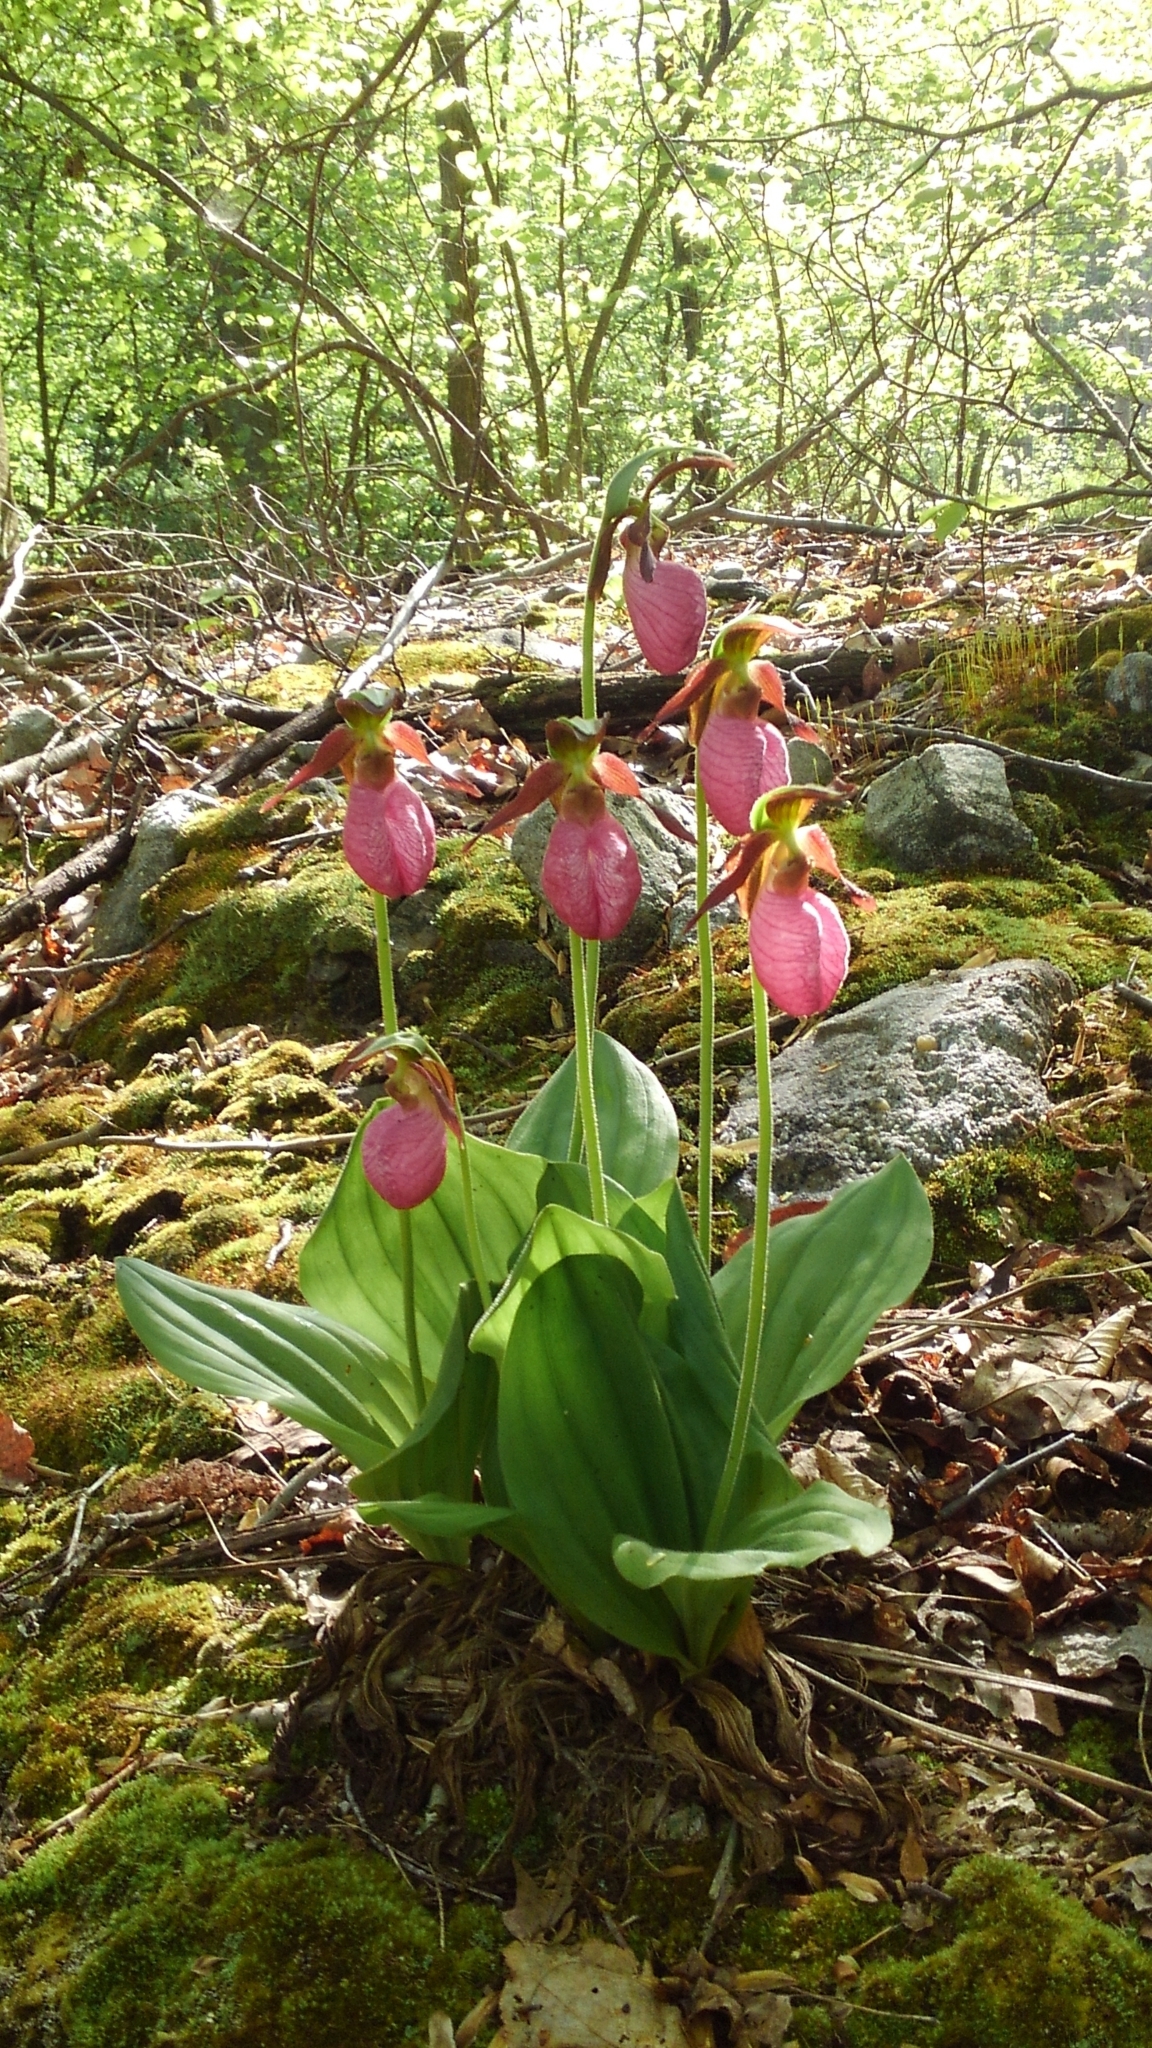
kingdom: Plantae
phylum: Tracheophyta
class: Liliopsida
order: Asparagales
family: Orchidaceae
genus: Cypripedium
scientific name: Cypripedium acaule
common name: Pink lady's-slipper
